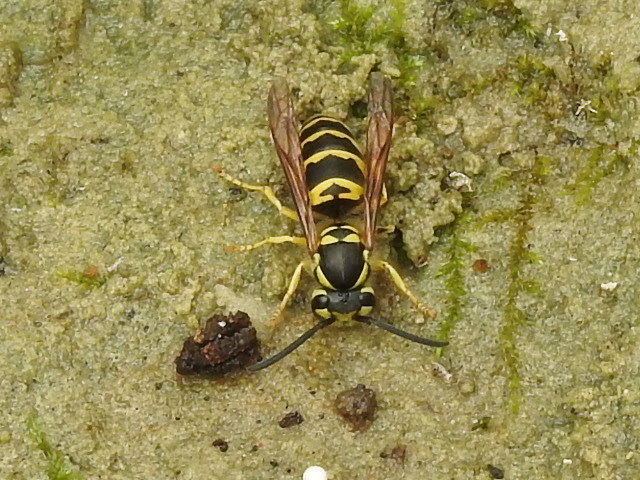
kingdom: Animalia
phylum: Arthropoda
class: Insecta
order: Hymenoptera
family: Vespidae
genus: Vespula
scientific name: Vespula maculifrons
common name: Eastern yellowjacket
